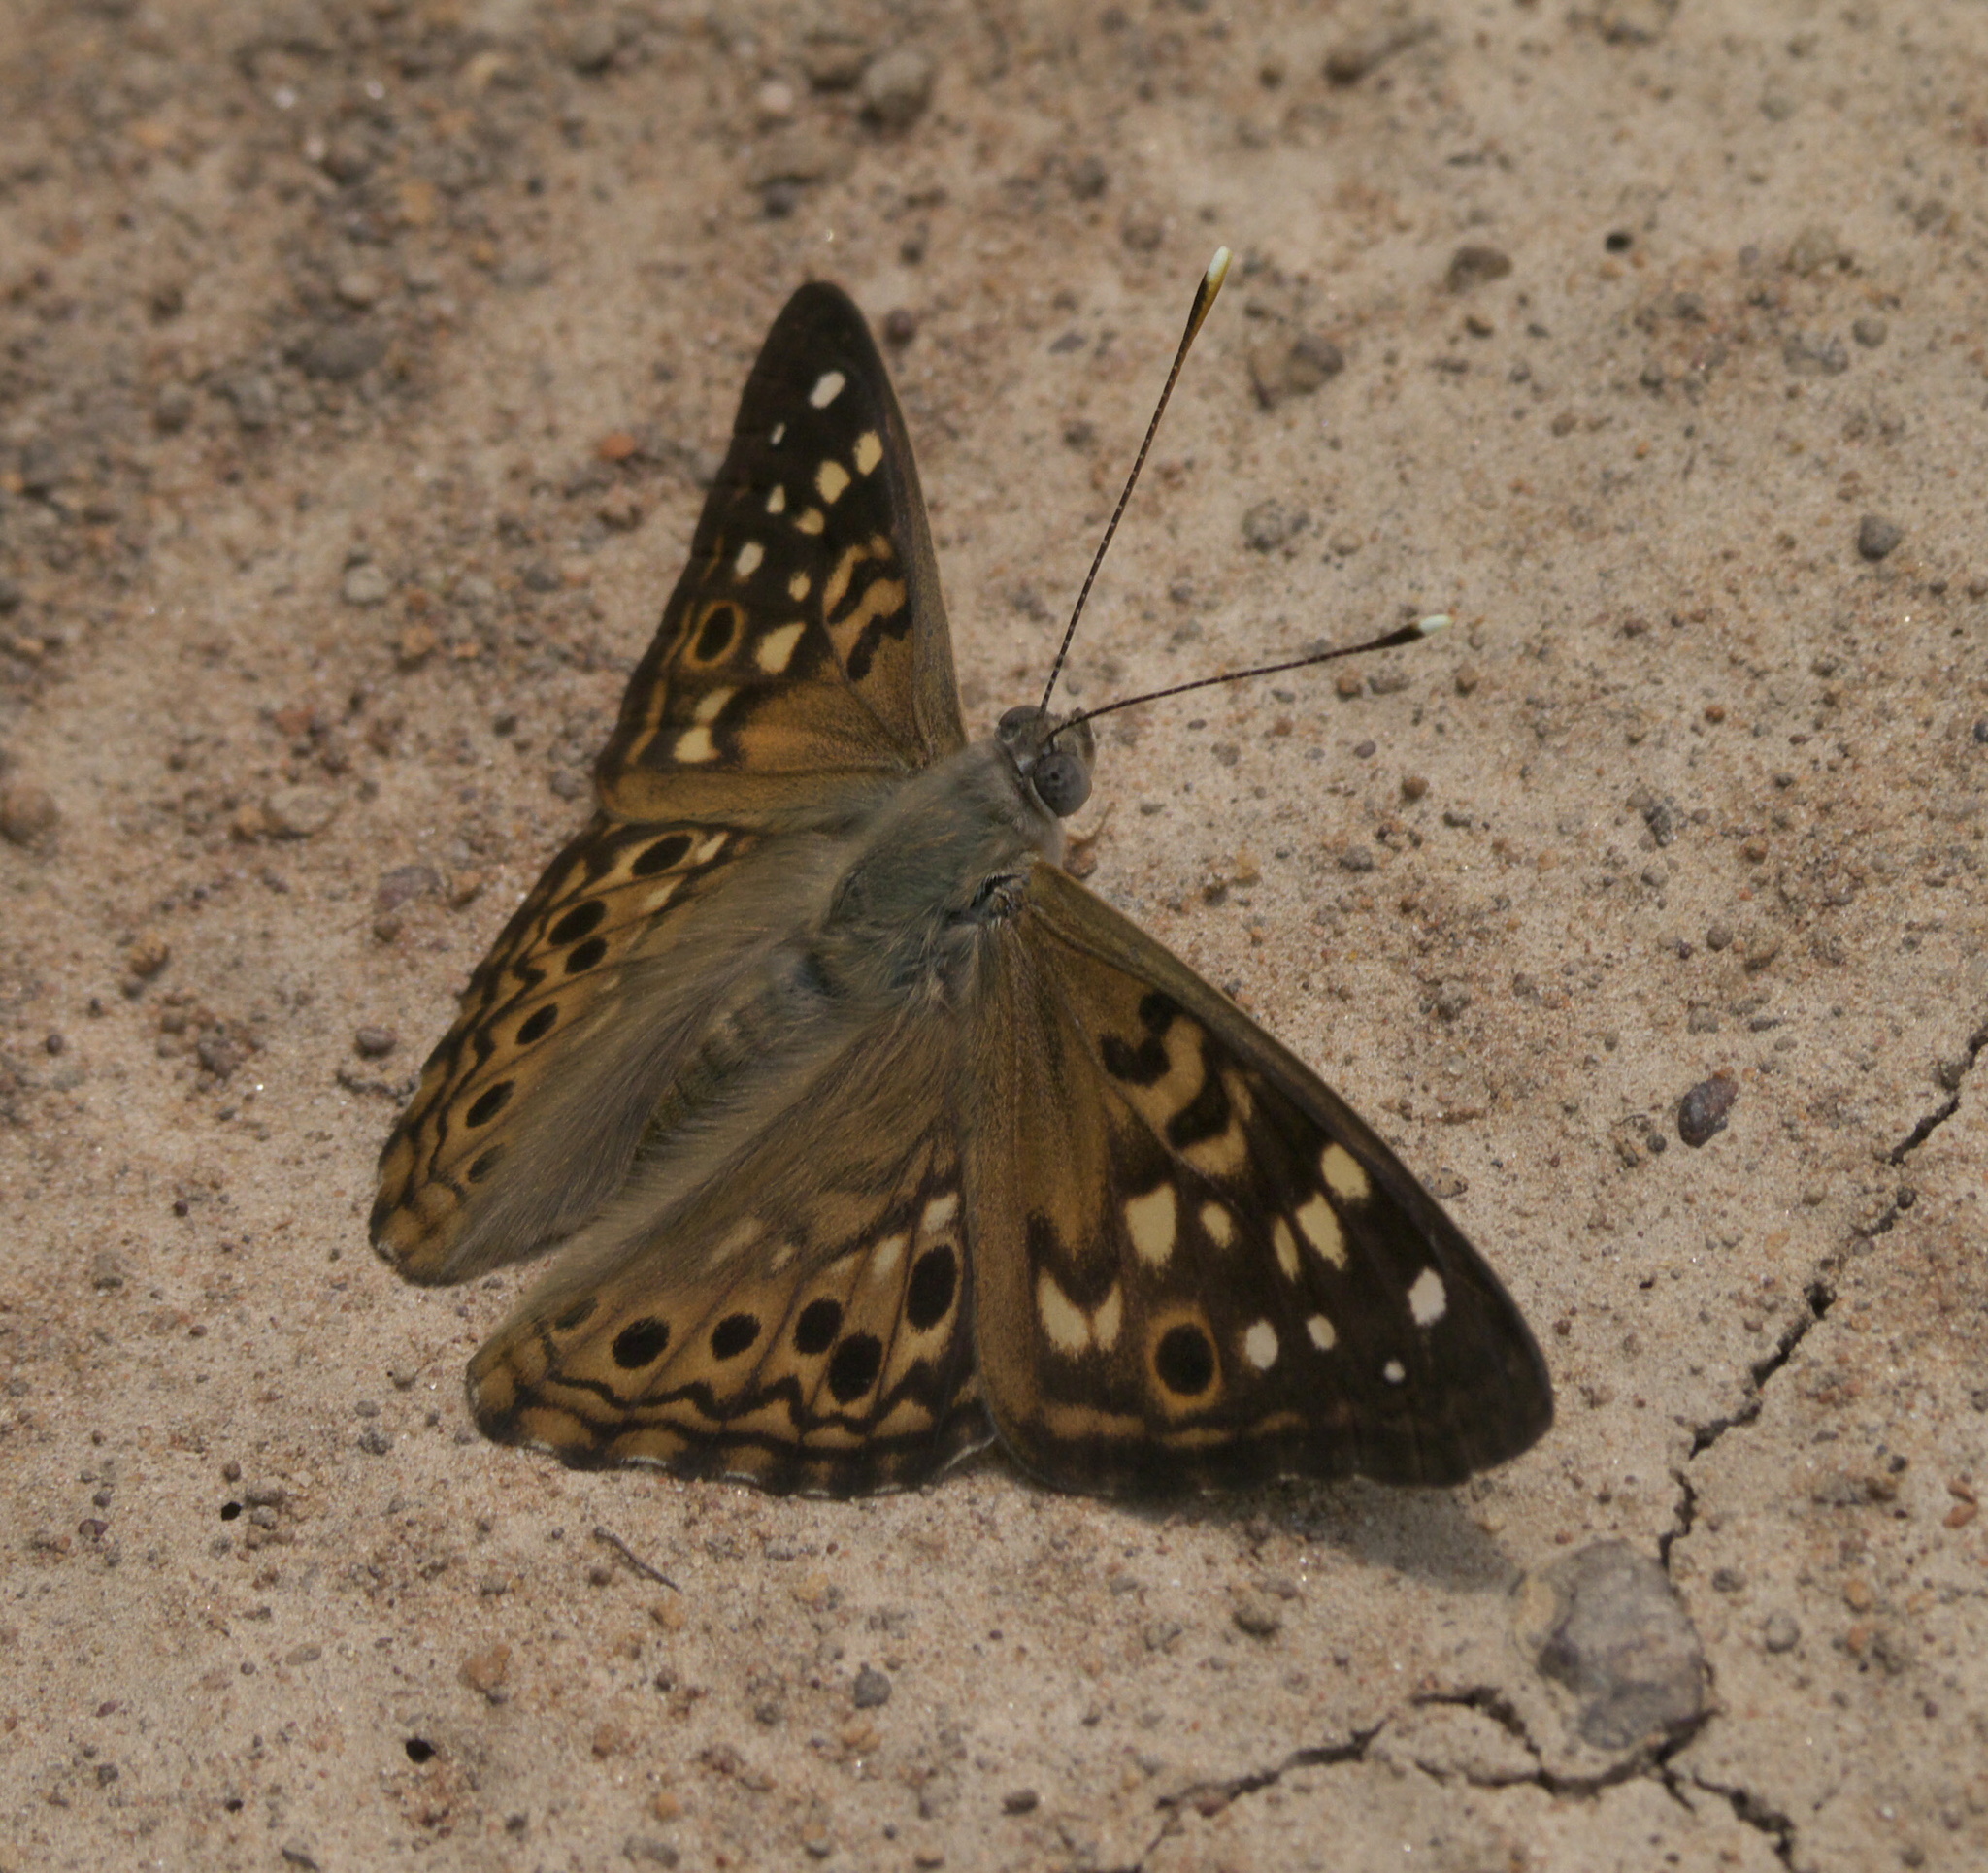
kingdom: Animalia
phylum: Arthropoda
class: Insecta
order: Lepidoptera
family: Nymphalidae
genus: Asterocampa
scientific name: Asterocampa celtis
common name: Hackberry emperor
